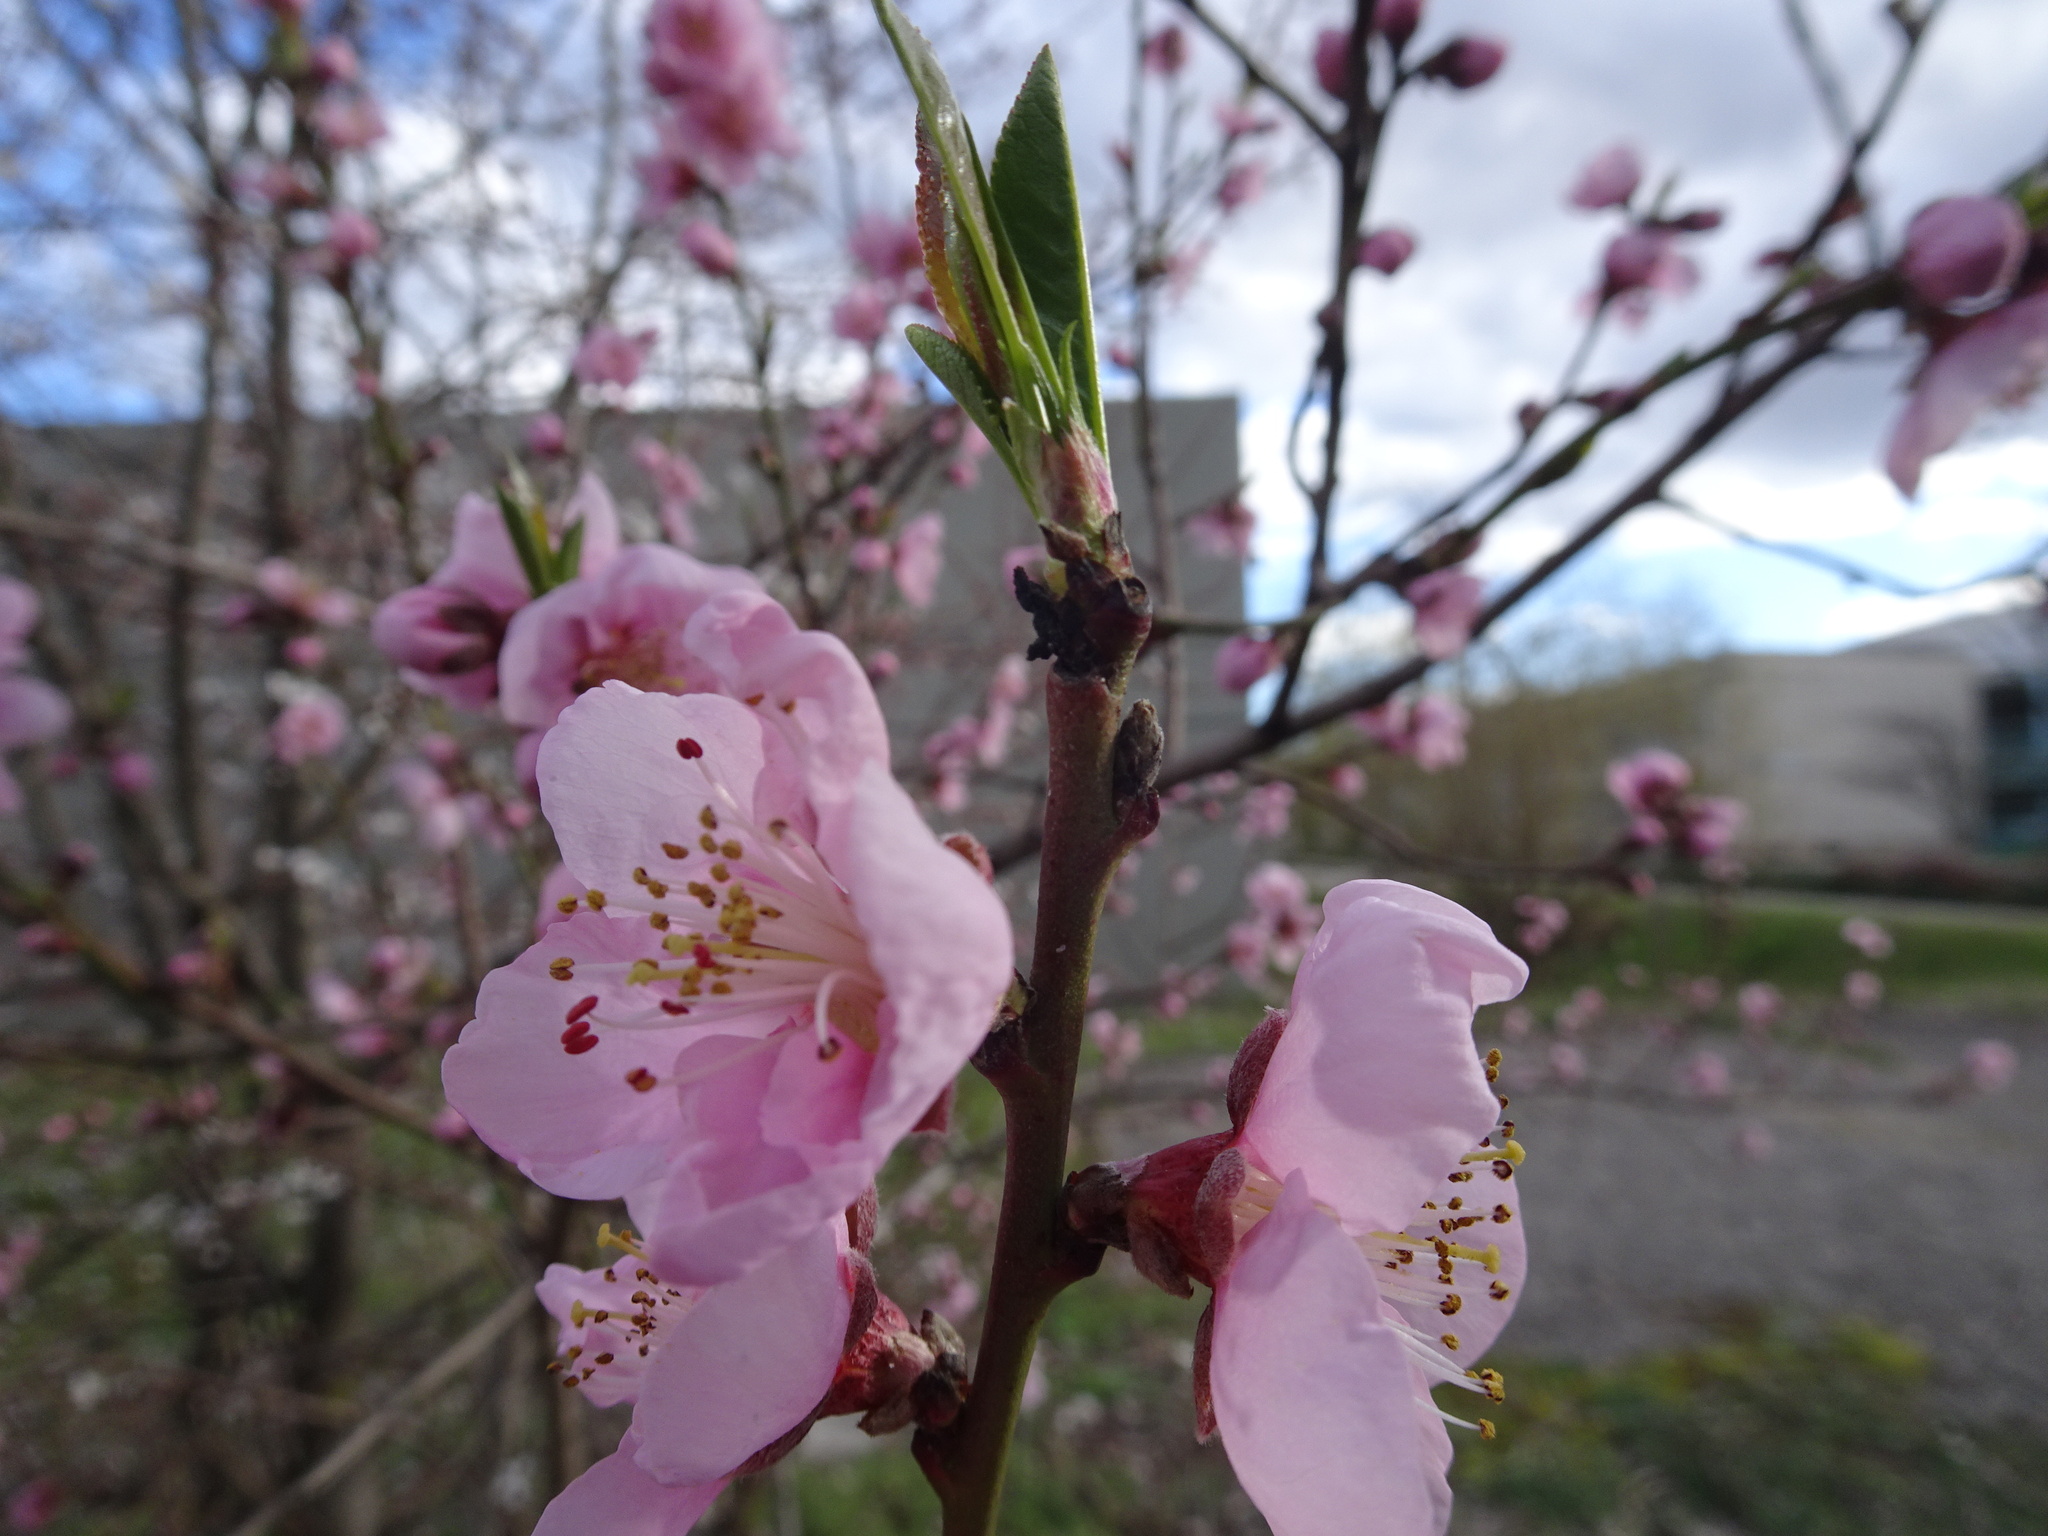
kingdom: Plantae
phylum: Tracheophyta
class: Magnoliopsida
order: Rosales
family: Rosaceae
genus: Prunus
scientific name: Prunus persica
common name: Peach
